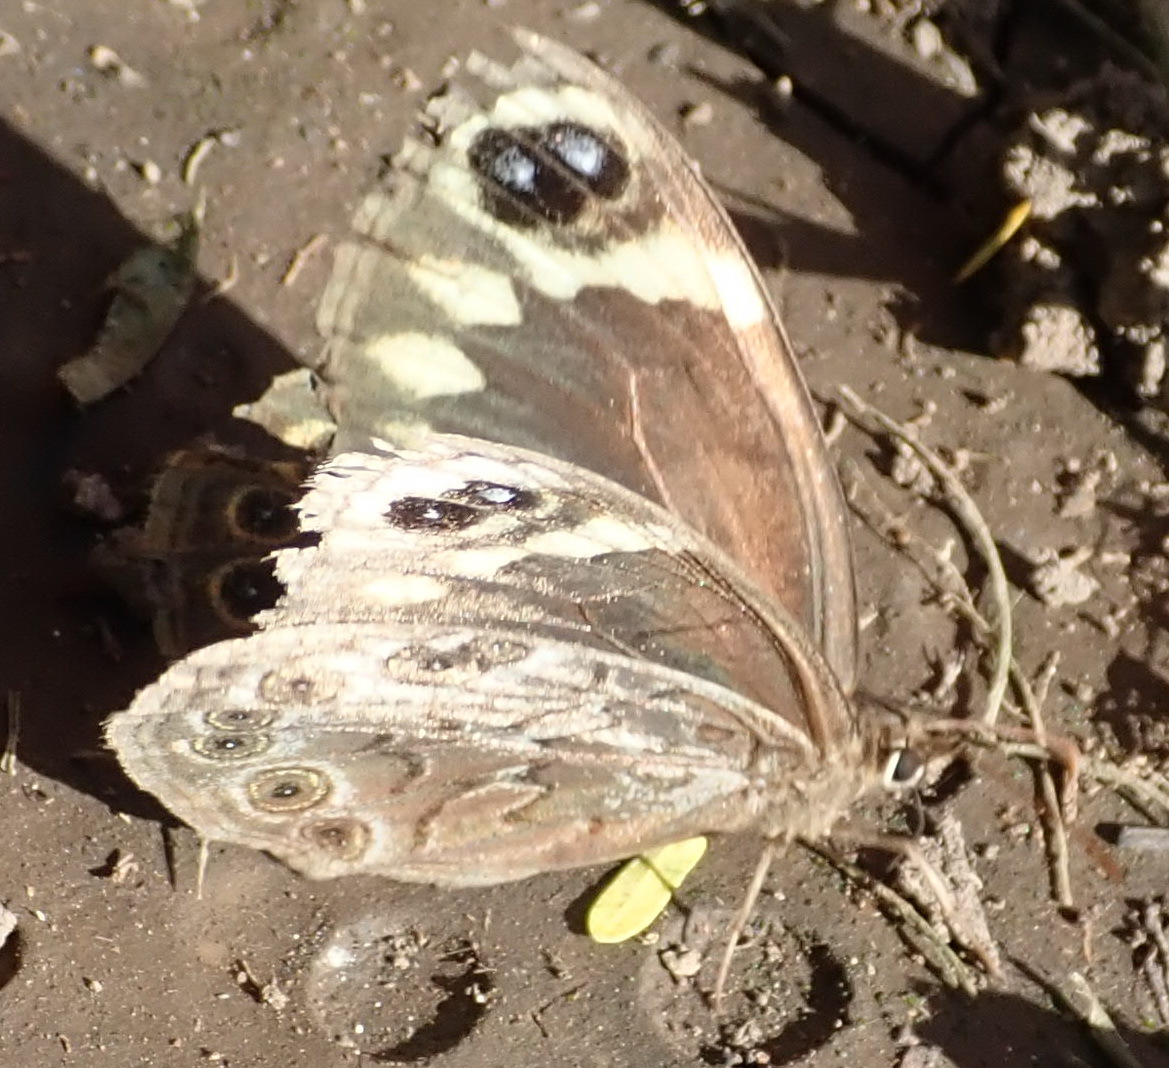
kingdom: Animalia
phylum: Arthropoda
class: Insecta
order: Lepidoptera
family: Nymphalidae
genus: Dira
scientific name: Dira clytus
